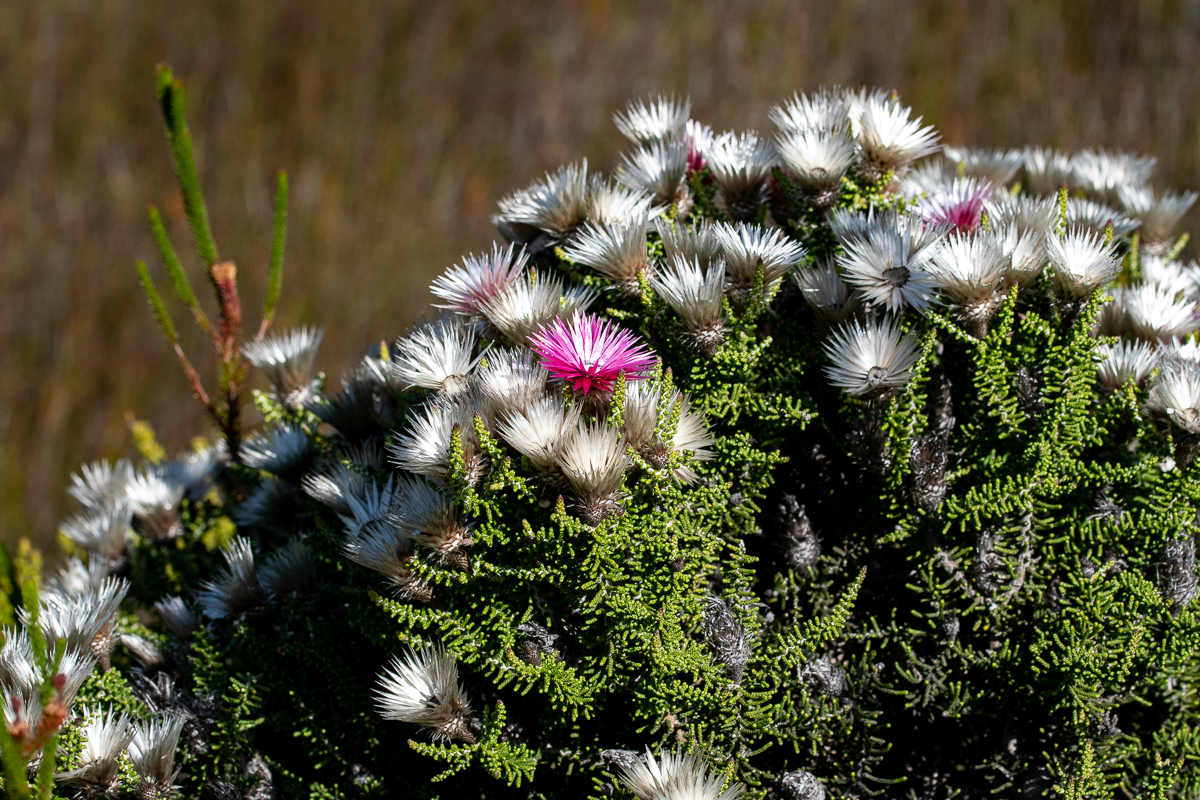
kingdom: Plantae
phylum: Tracheophyta
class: Magnoliopsida
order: Asterales
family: Asteraceae
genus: Phaenocoma
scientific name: Phaenocoma prolifera
